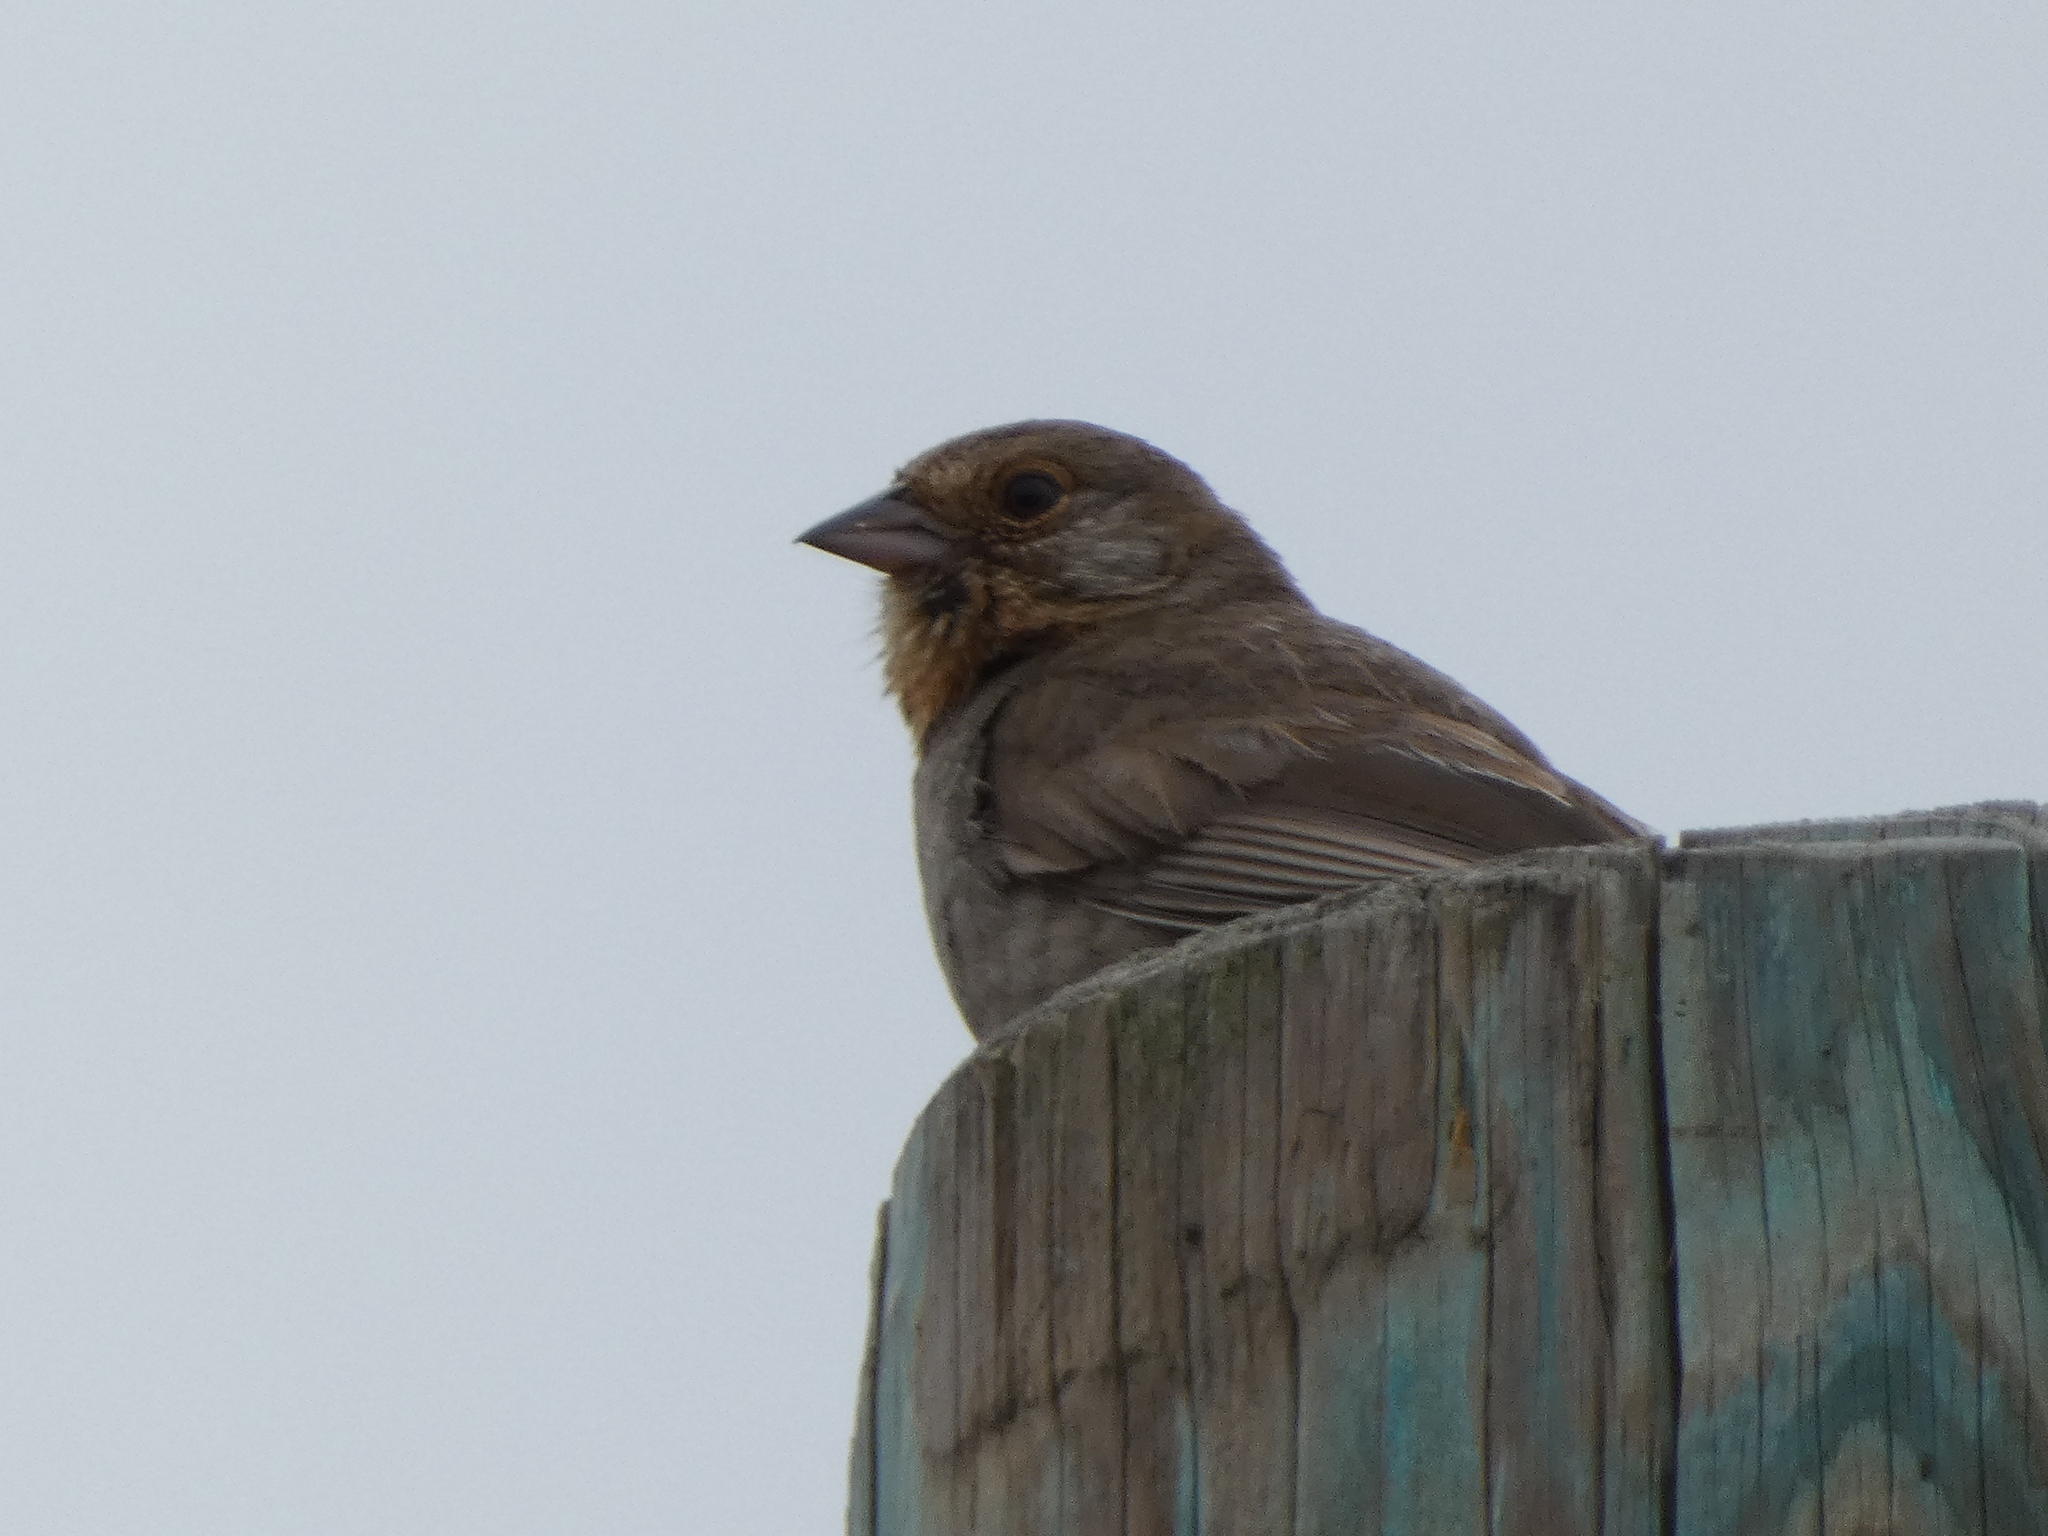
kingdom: Animalia
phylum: Chordata
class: Aves
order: Passeriformes
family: Passerellidae
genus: Melozone
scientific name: Melozone crissalis
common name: California towhee
